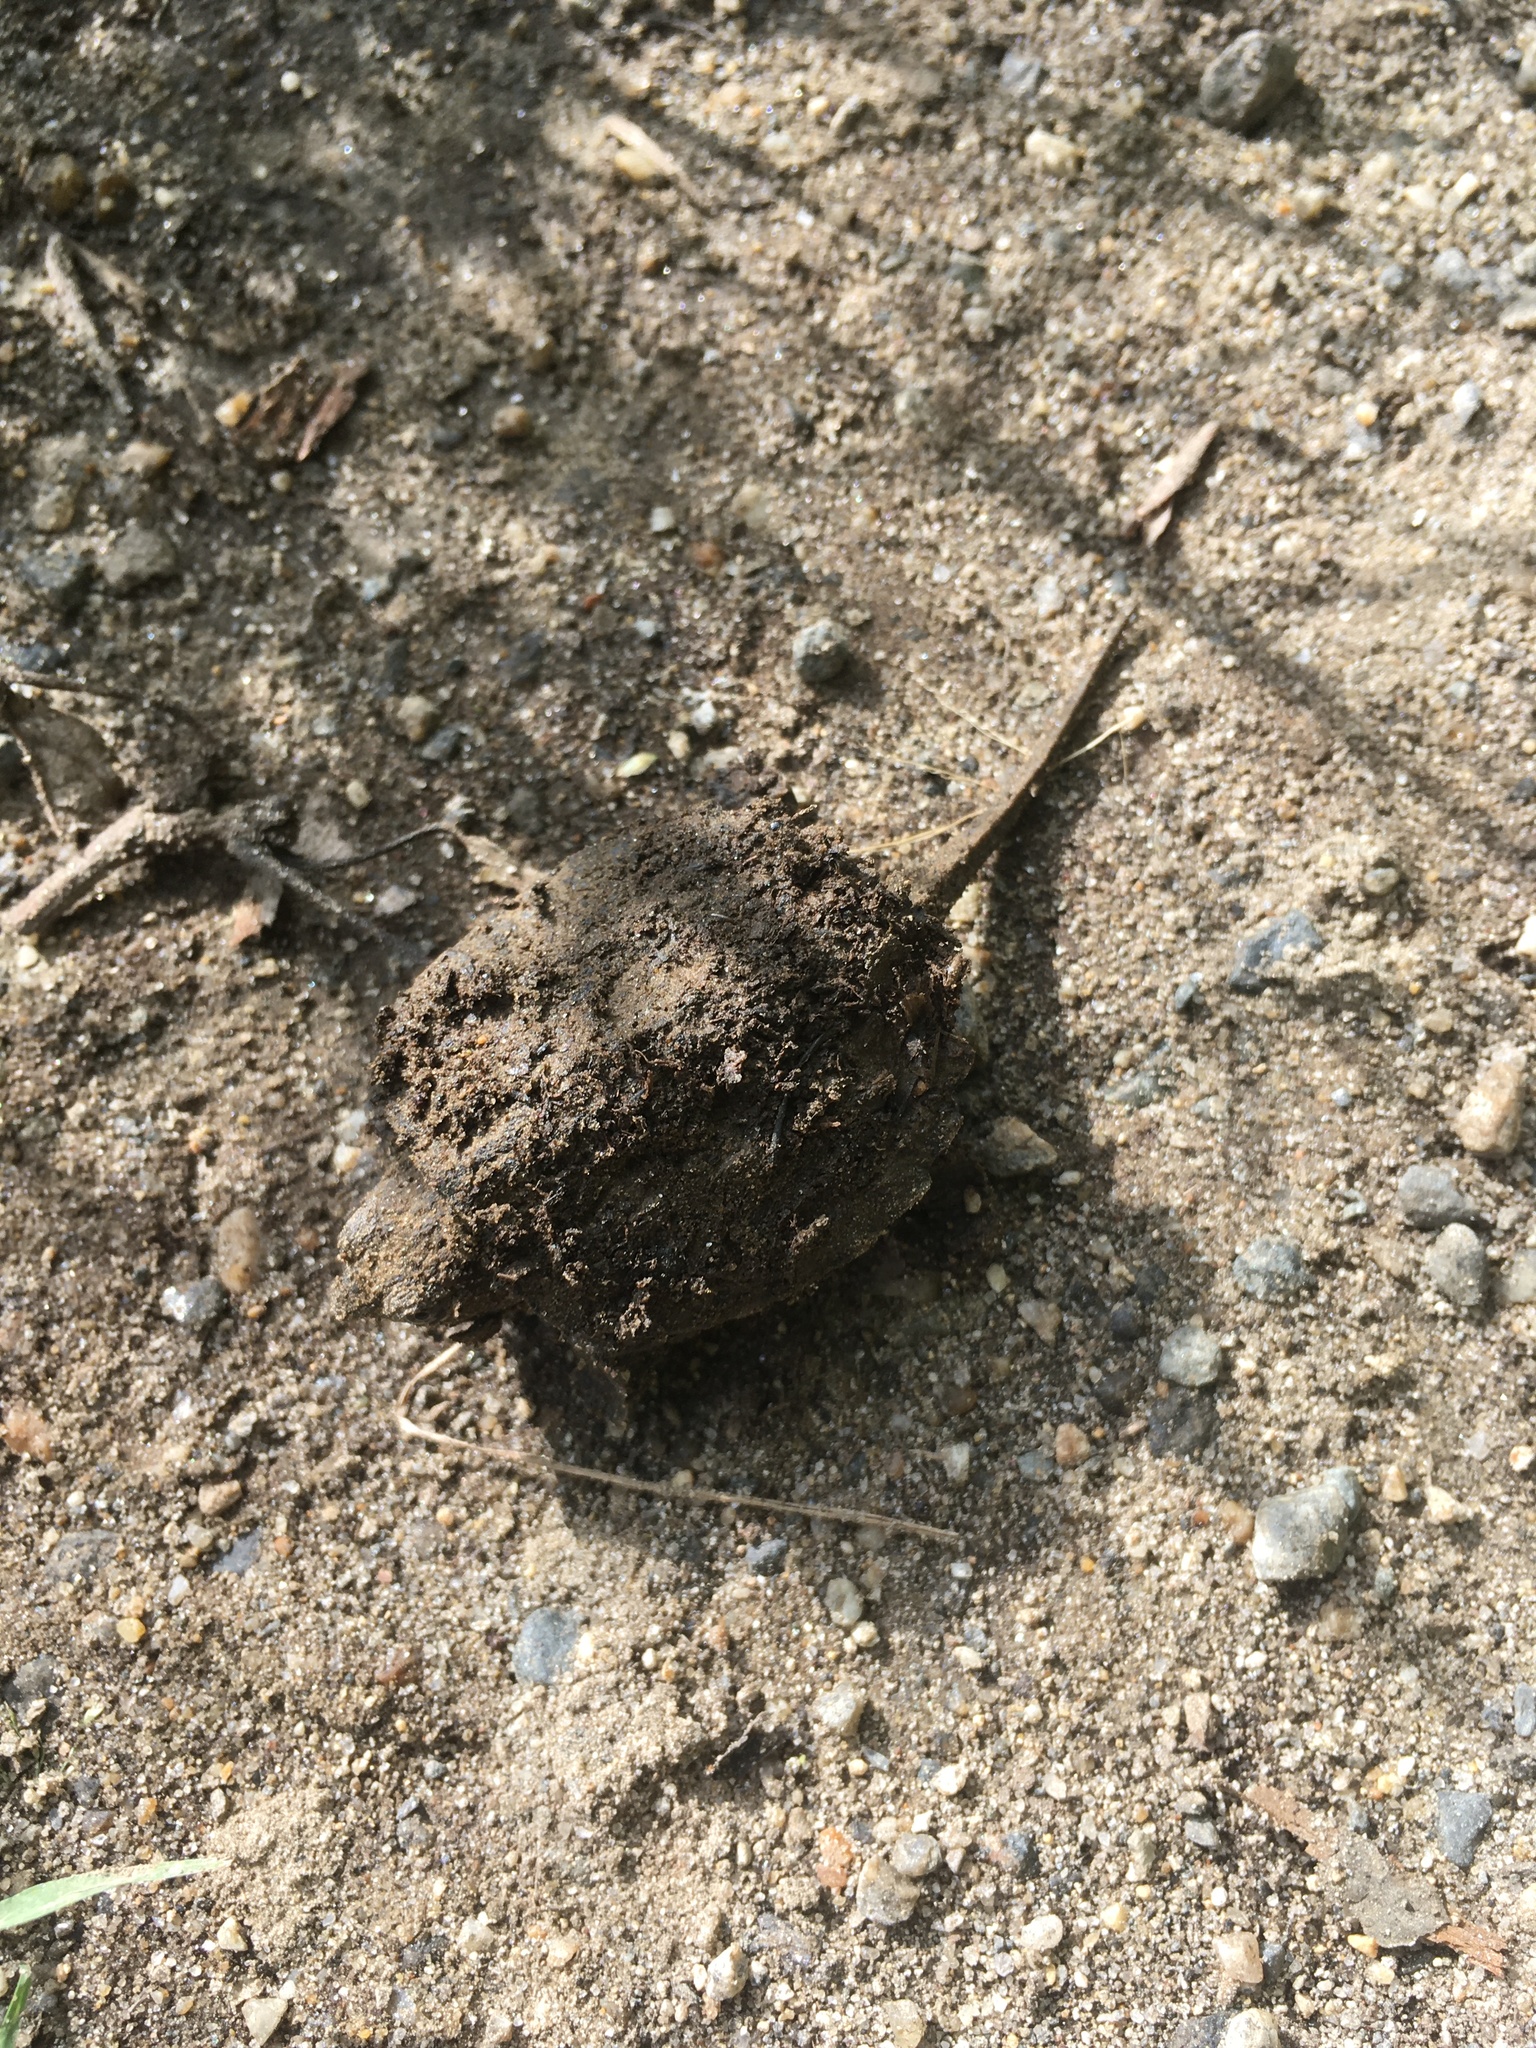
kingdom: Animalia
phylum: Chordata
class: Testudines
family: Chelydridae
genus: Chelydra
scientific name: Chelydra serpentina
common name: Common snapping turtle
